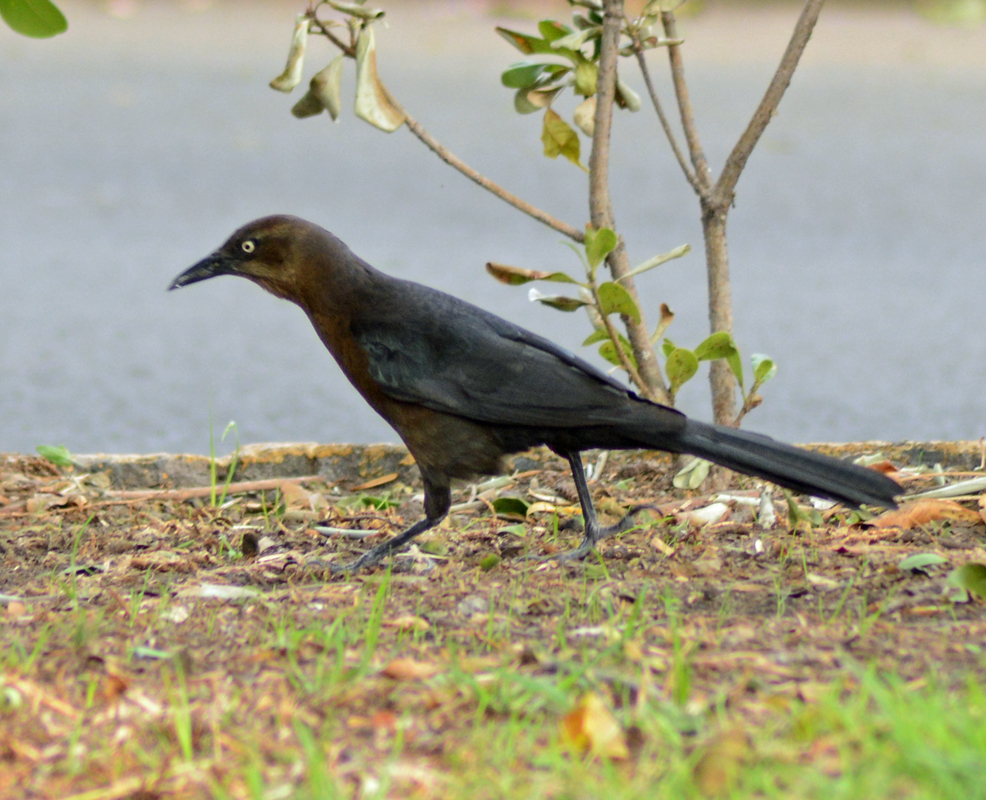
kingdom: Animalia
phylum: Chordata
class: Aves
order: Passeriformes
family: Icteridae
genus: Quiscalus
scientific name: Quiscalus mexicanus
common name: Great-tailed grackle
